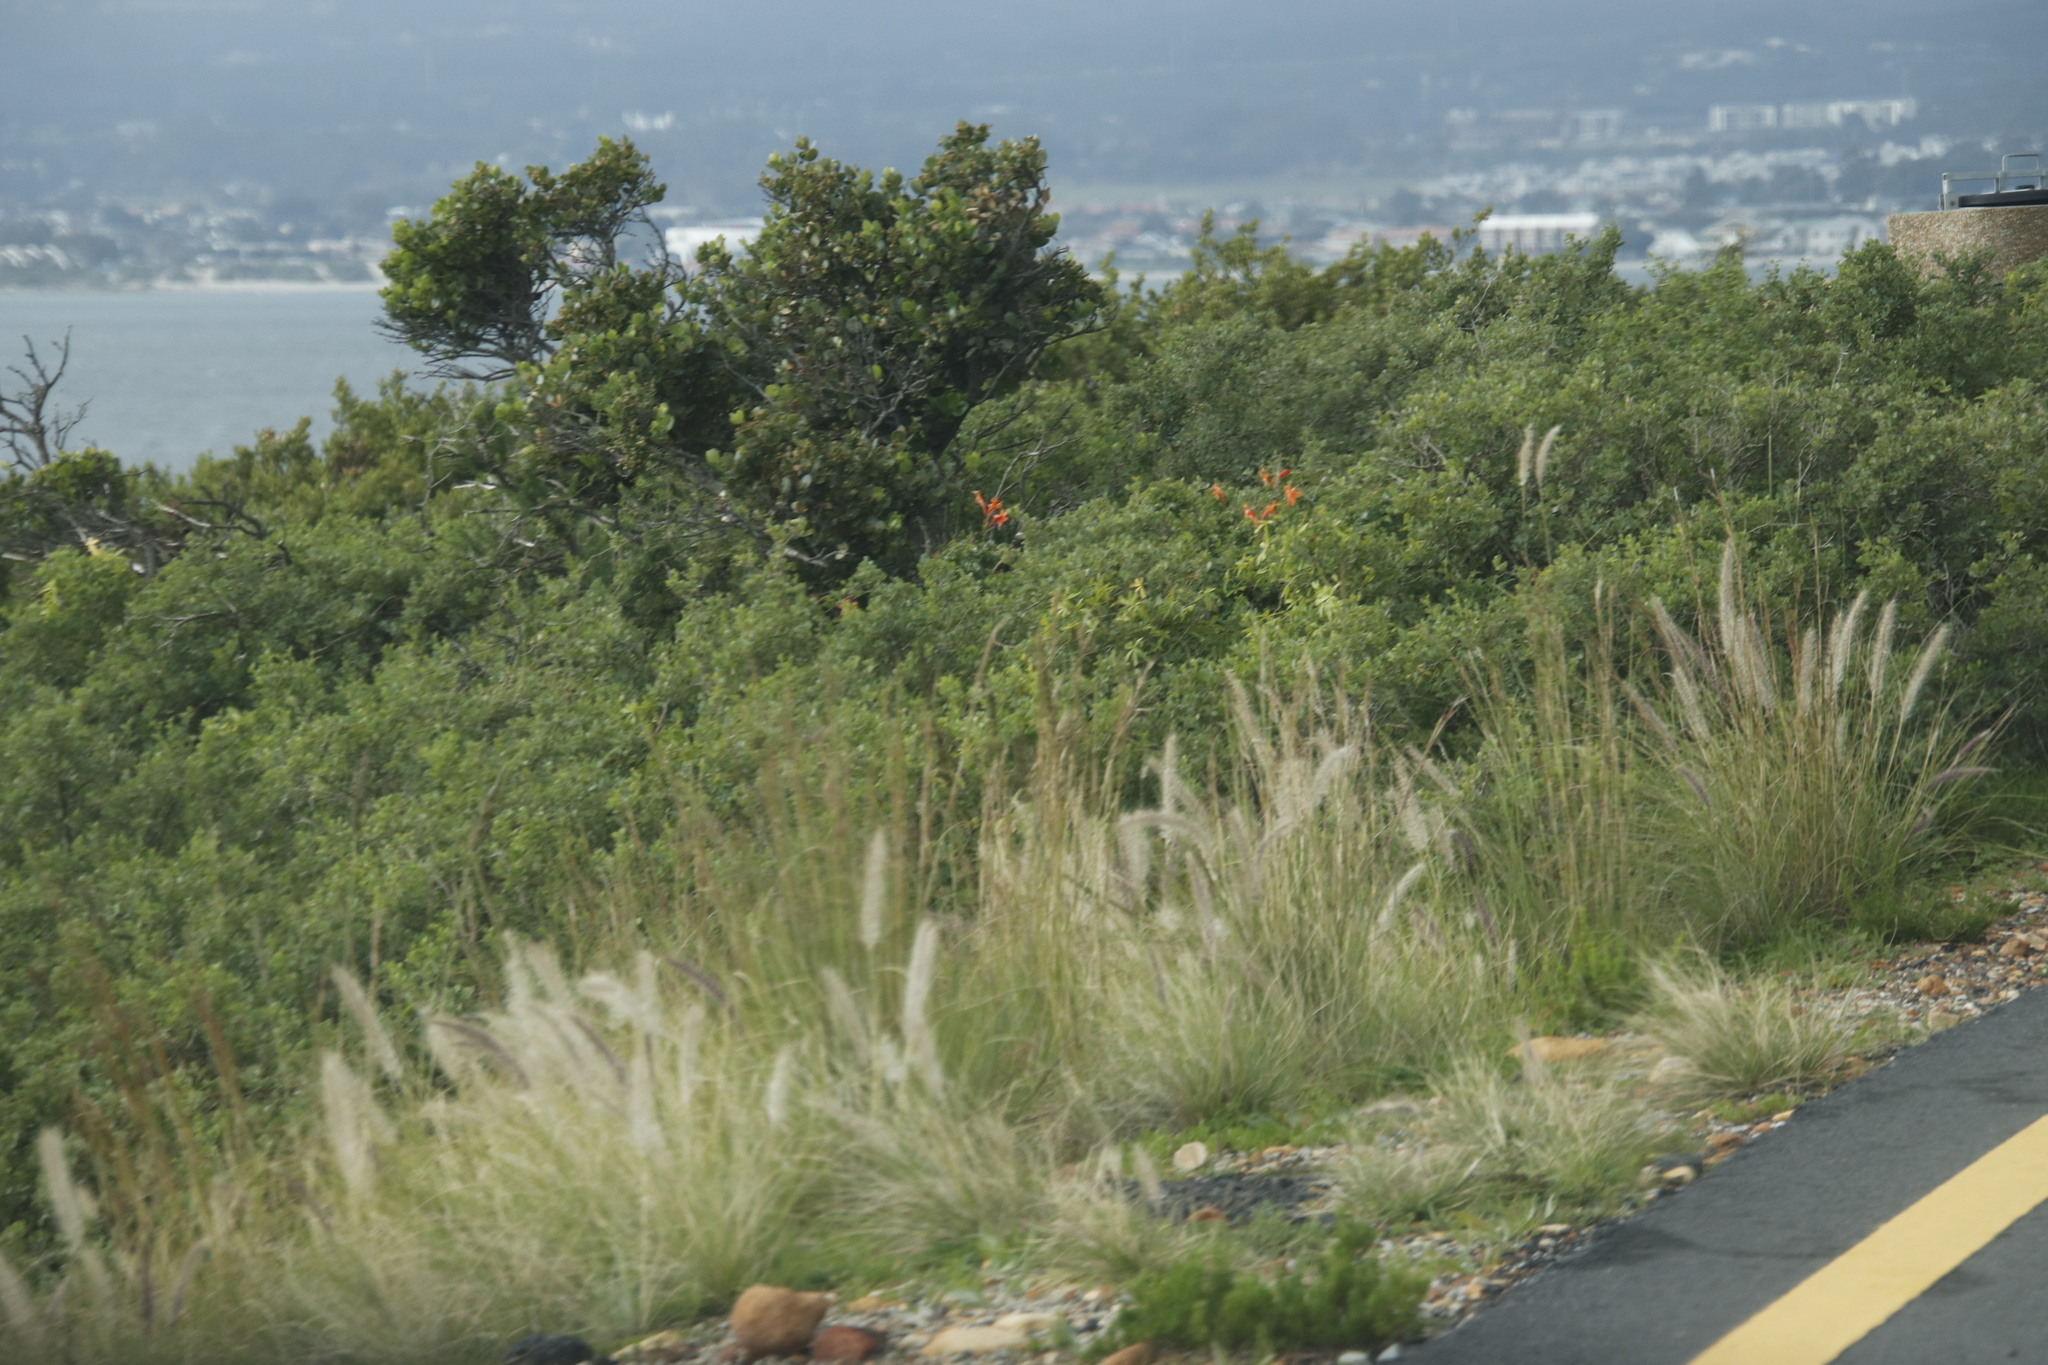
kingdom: Plantae
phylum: Tracheophyta
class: Liliopsida
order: Poales
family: Poaceae
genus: Cenchrus
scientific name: Cenchrus setaceus
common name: Crimson fountaingrass
